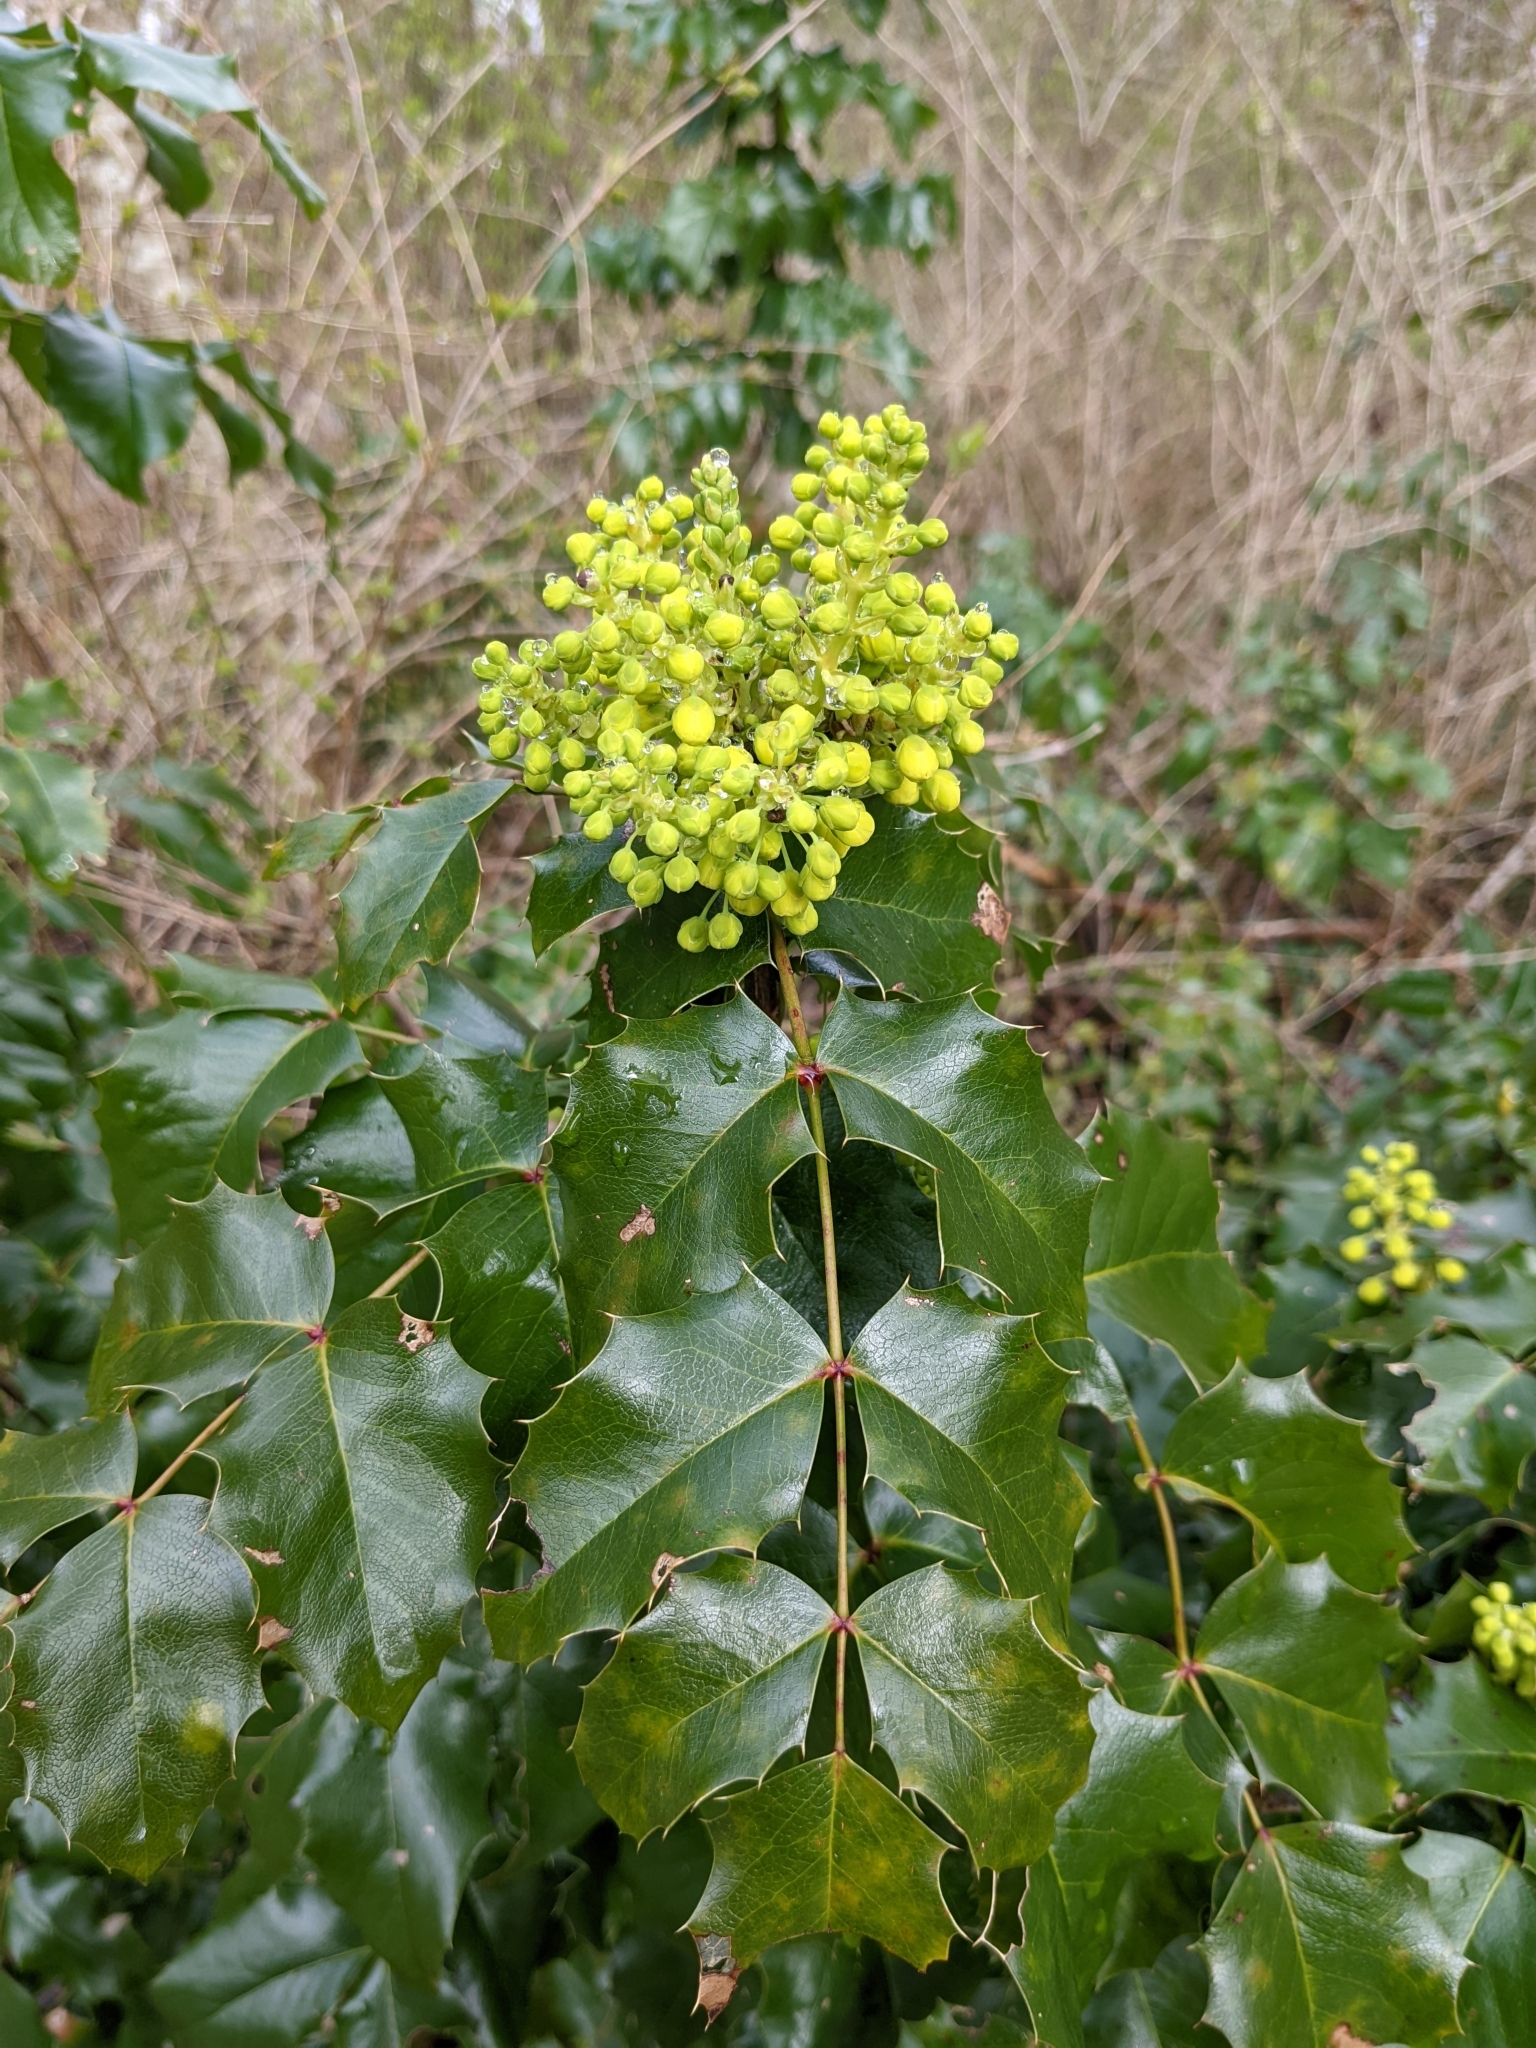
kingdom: Plantae
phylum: Tracheophyta
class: Magnoliopsida
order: Ranunculales
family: Berberidaceae
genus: Mahonia
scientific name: Mahonia aquifolium
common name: Oregon-grape
